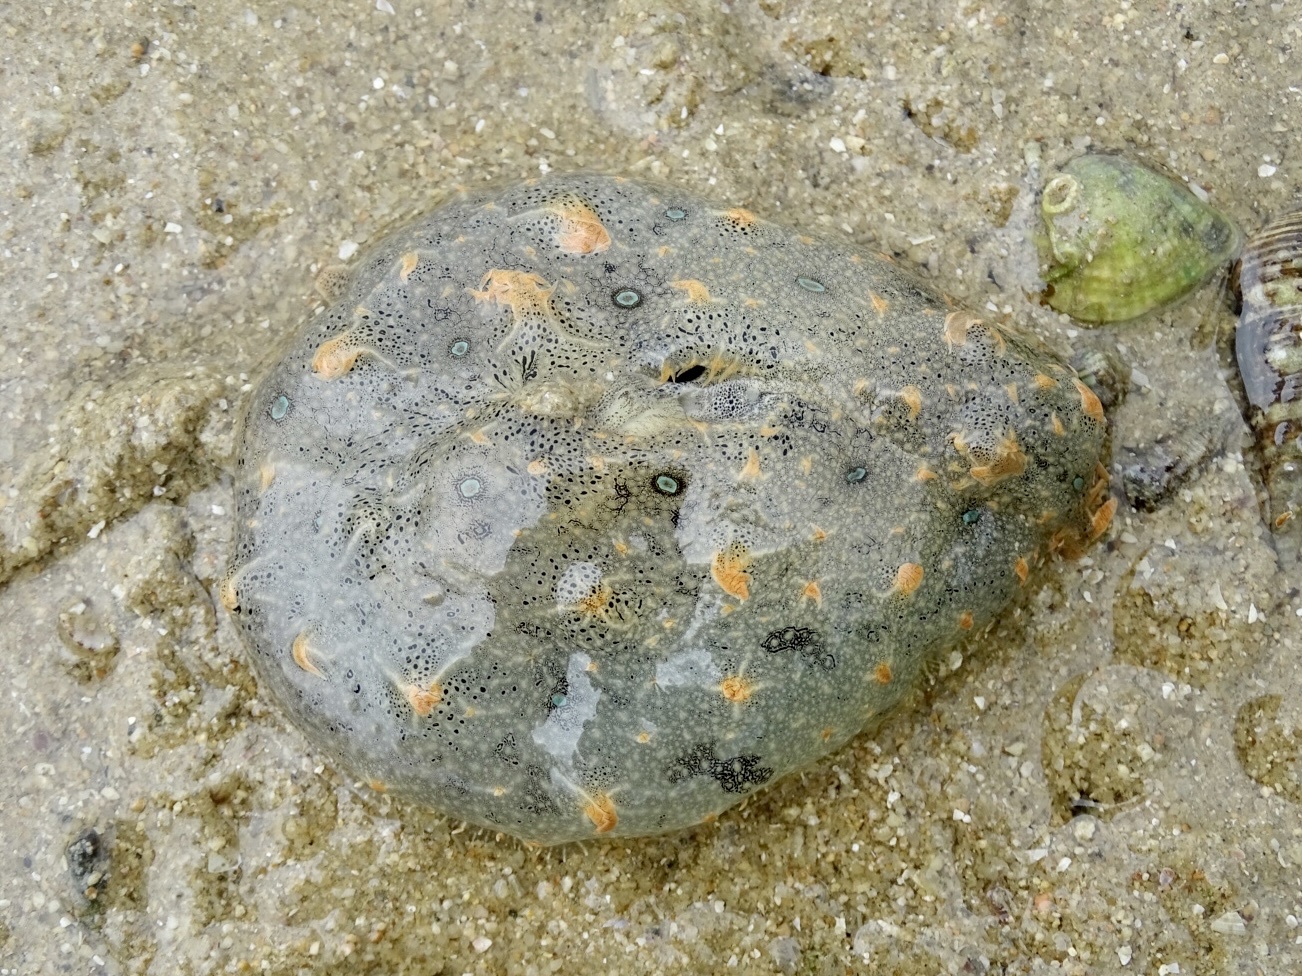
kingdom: Animalia
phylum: Mollusca
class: Gastropoda
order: Aplysiida
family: Aplysiidae
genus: Bursatella
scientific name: Bursatella leachii
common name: Shaggy sea hare
